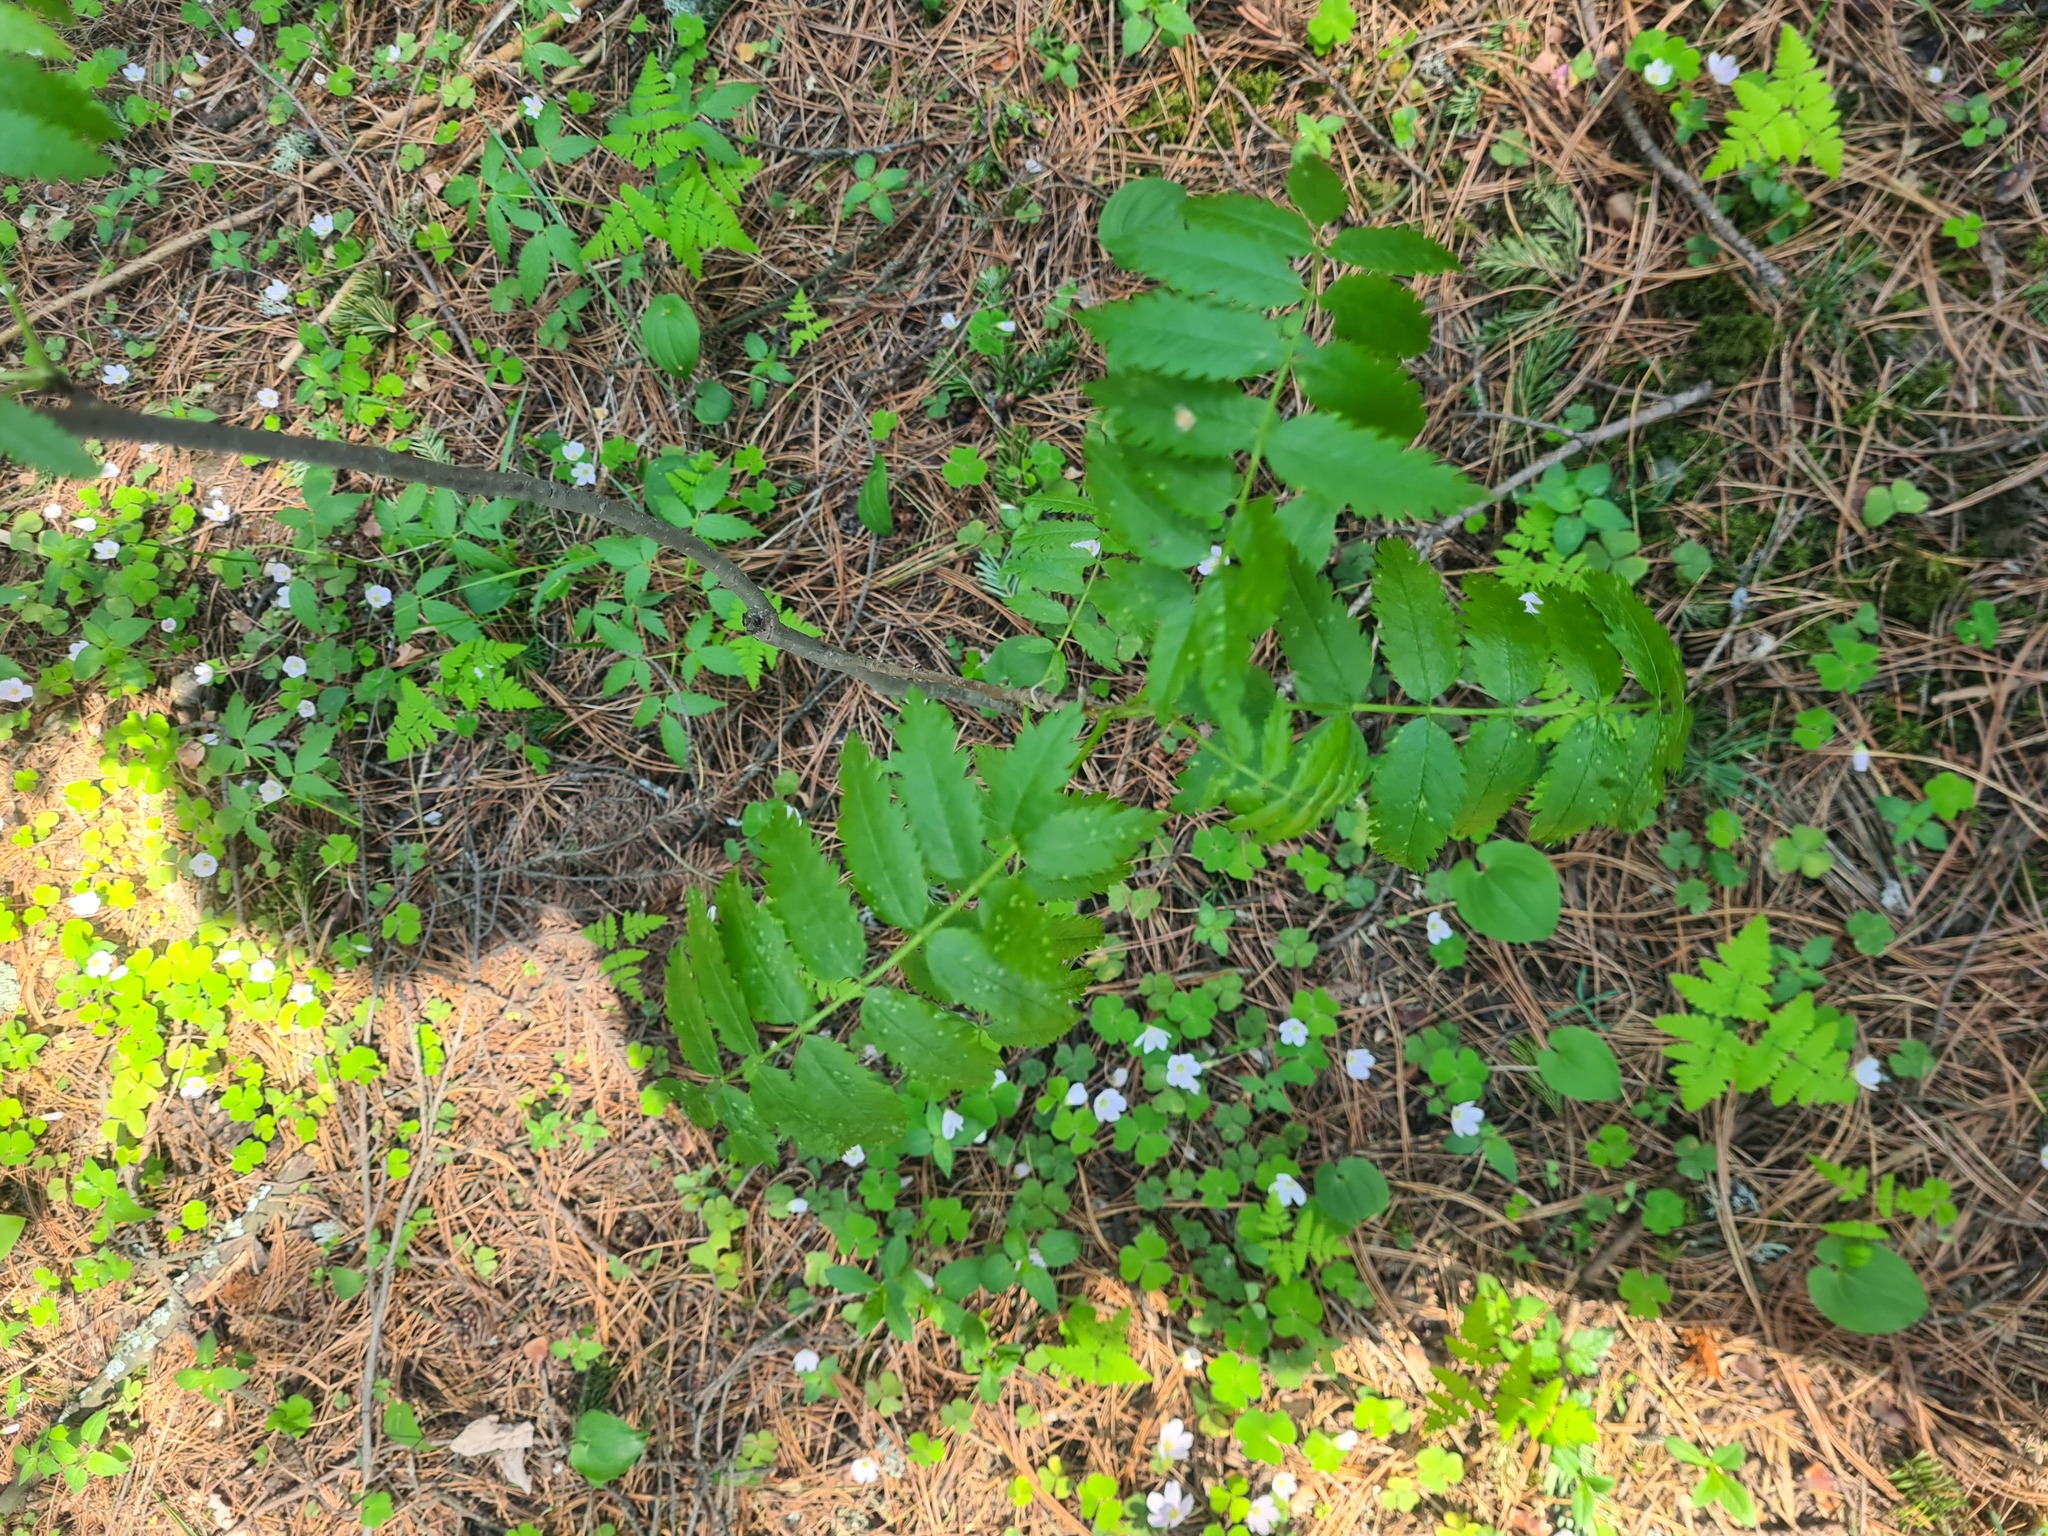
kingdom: Plantae
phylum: Tracheophyta
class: Magnoliopsida
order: Rosales
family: Rosaceae
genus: Sorbus
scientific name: Sorbus aucuparia
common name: Rowan
